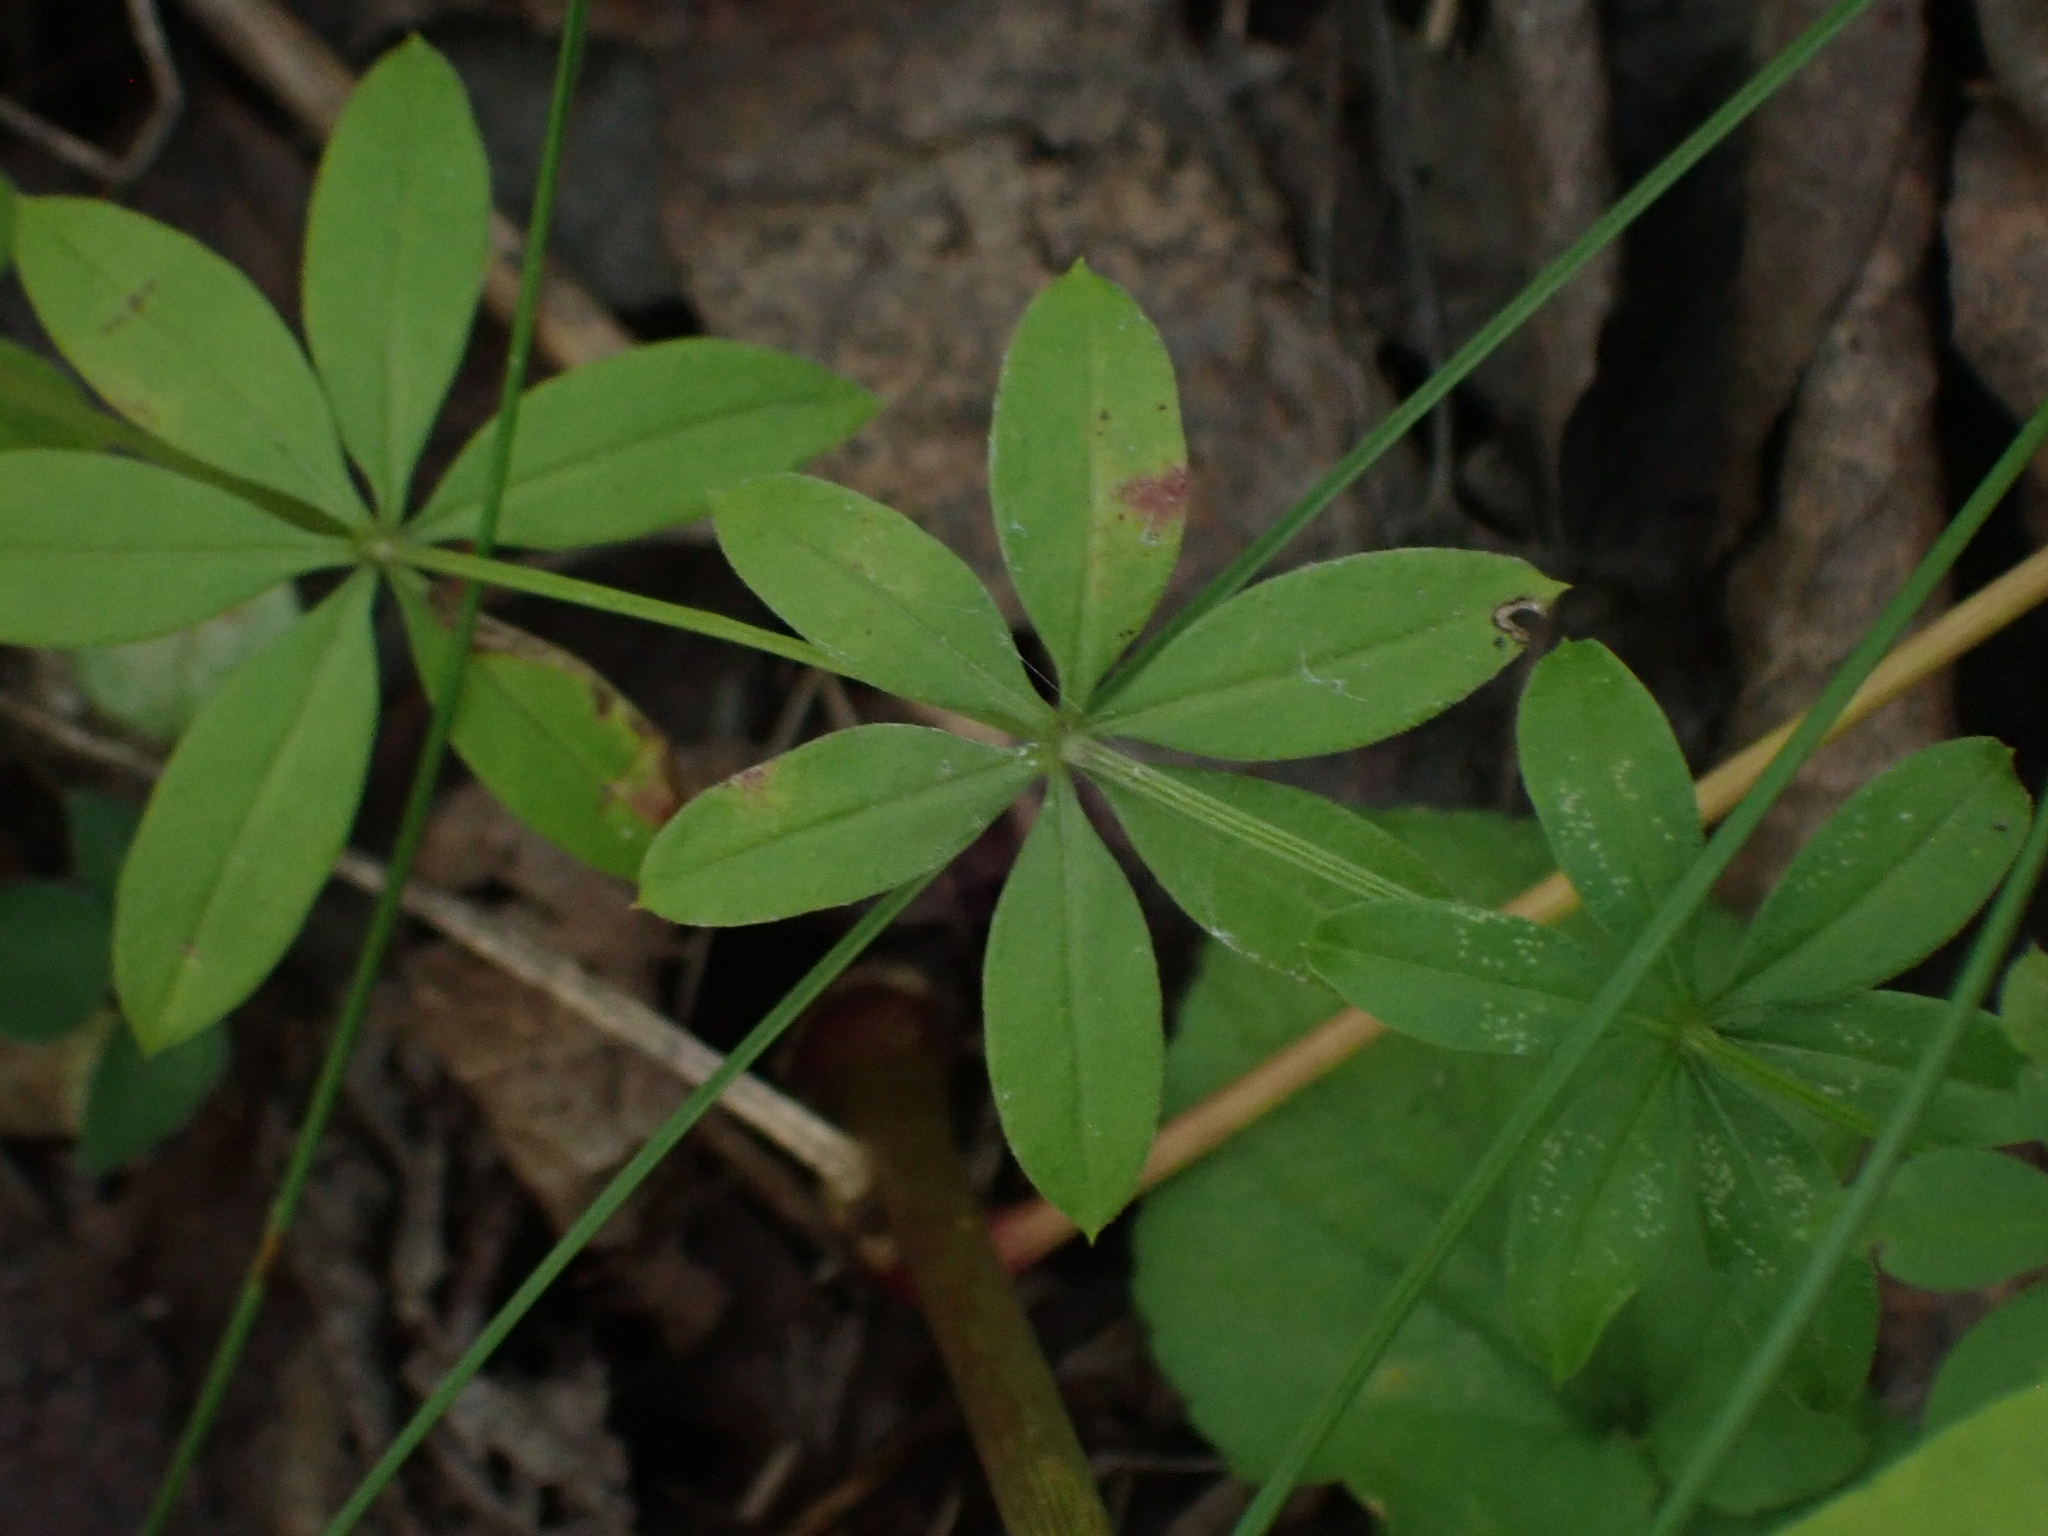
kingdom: Plantae
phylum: Tracheophyta
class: Magnoliopsida
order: Gentianales
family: Rubiaceae
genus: Galium
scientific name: Galium triflorum
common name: Fragrant bedstraw
